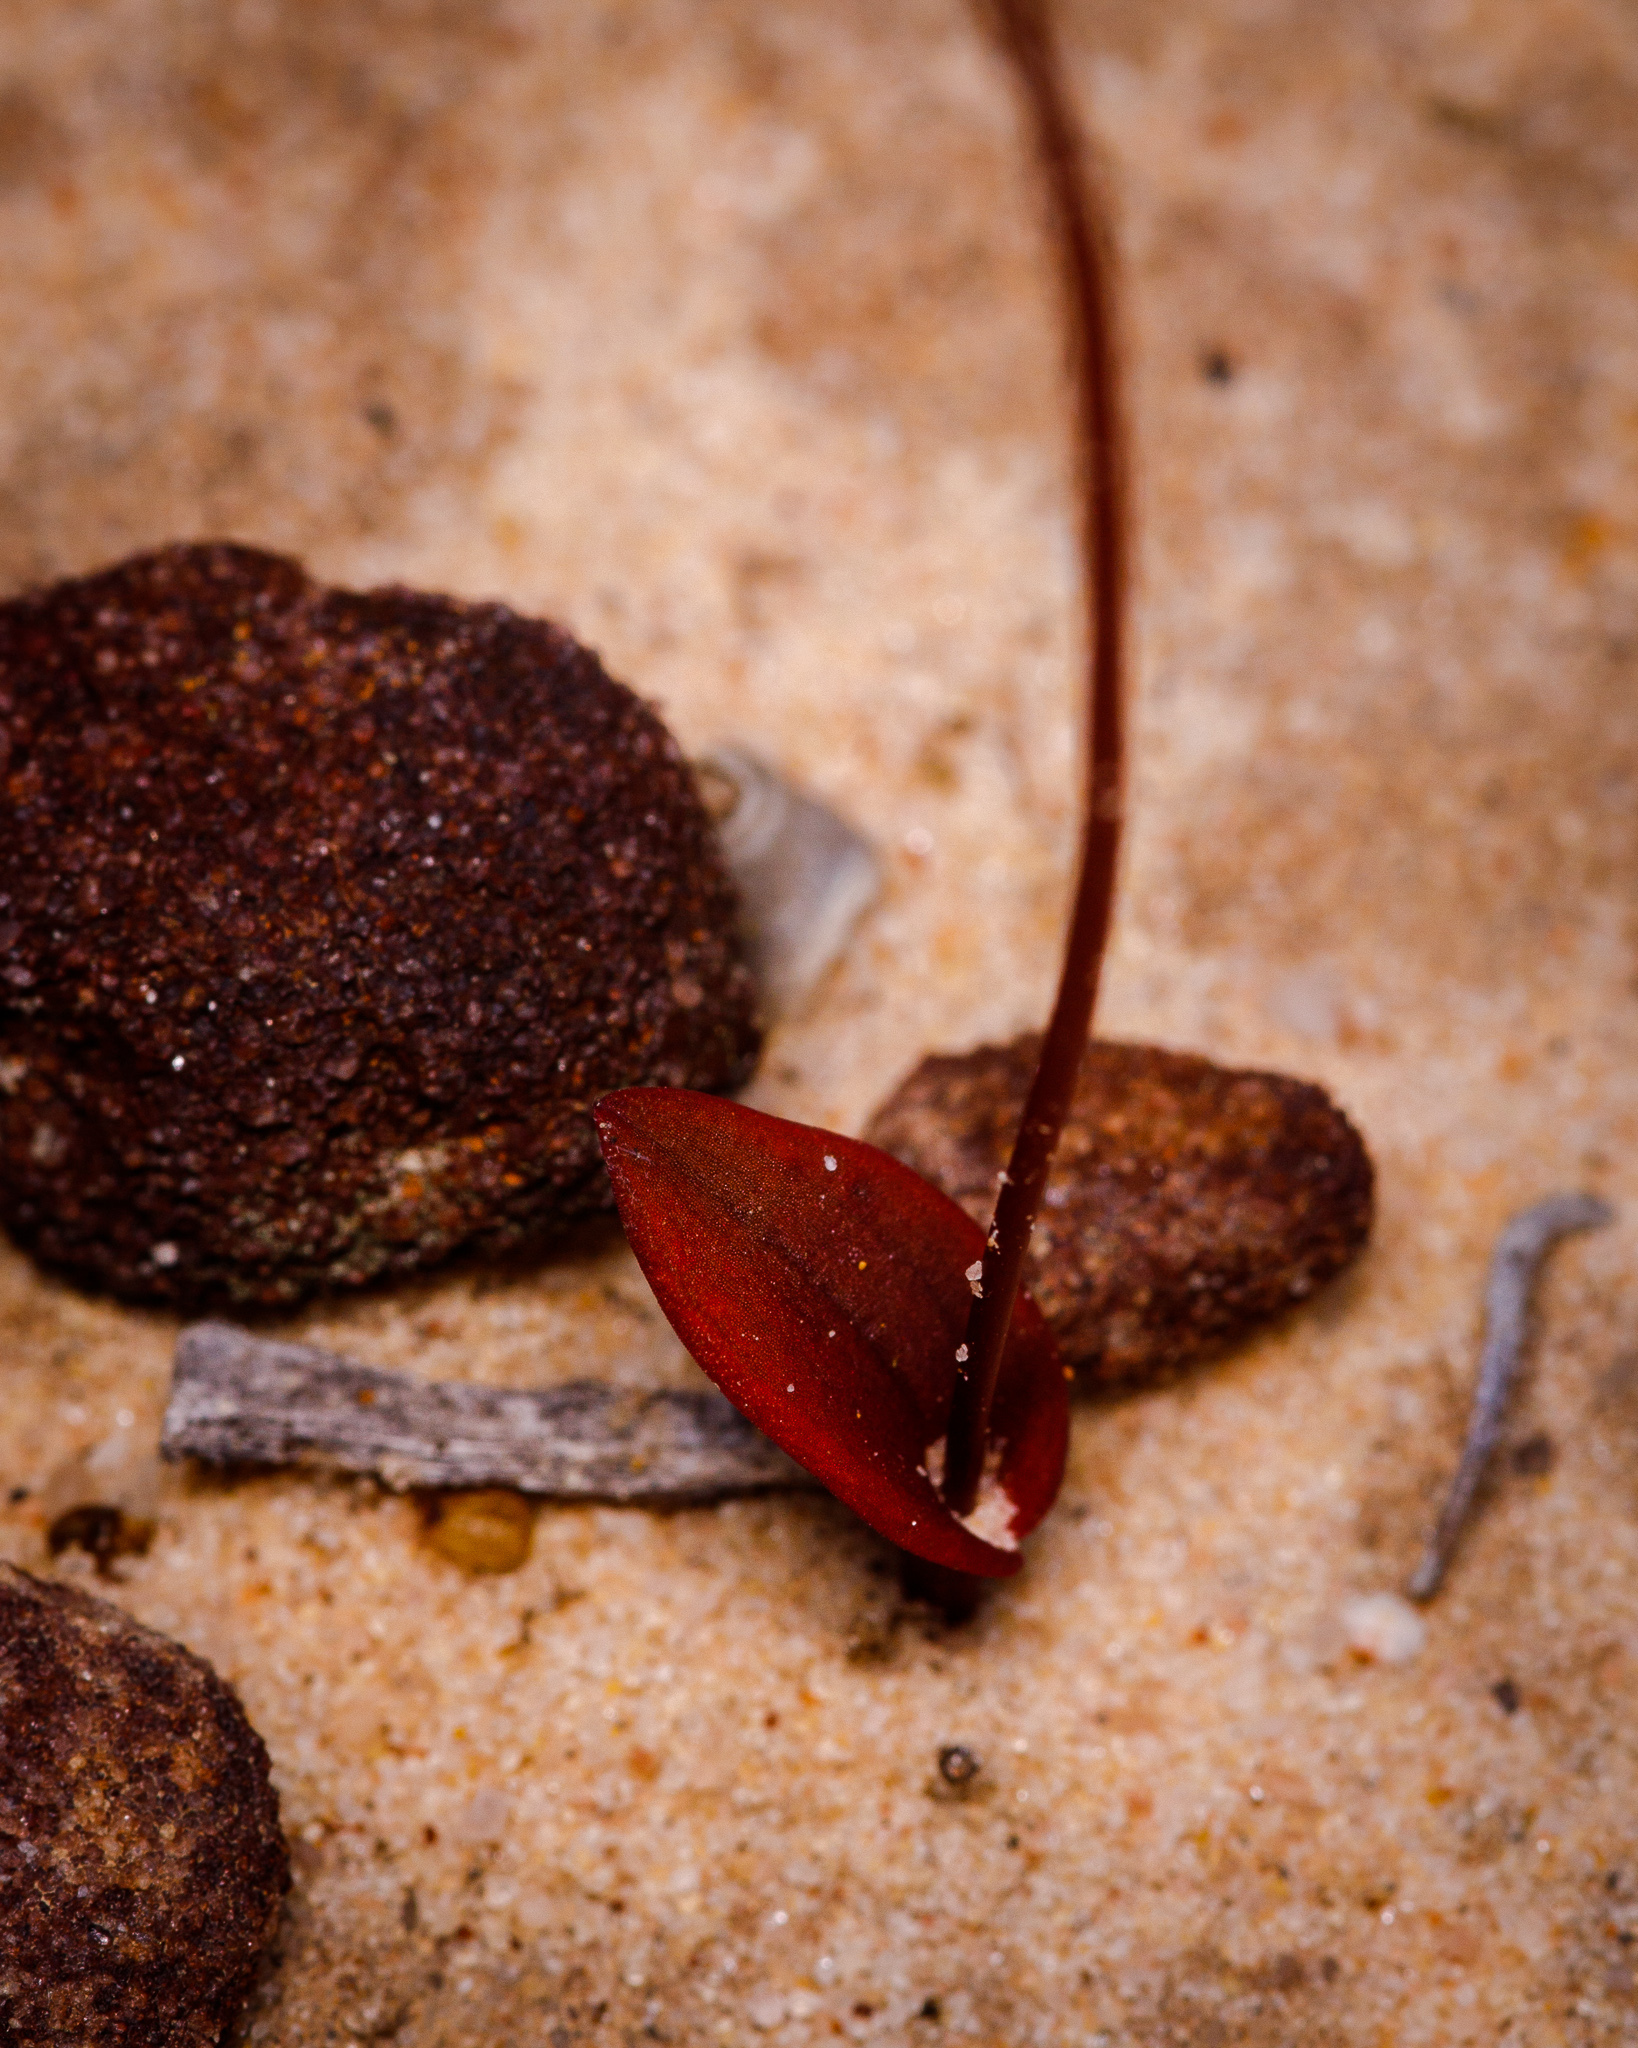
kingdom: Plantae
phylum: Tracheophyta
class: Liliopsida
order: Asparagales
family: Orchidaceae
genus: Caleana
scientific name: Caleana terminalis
